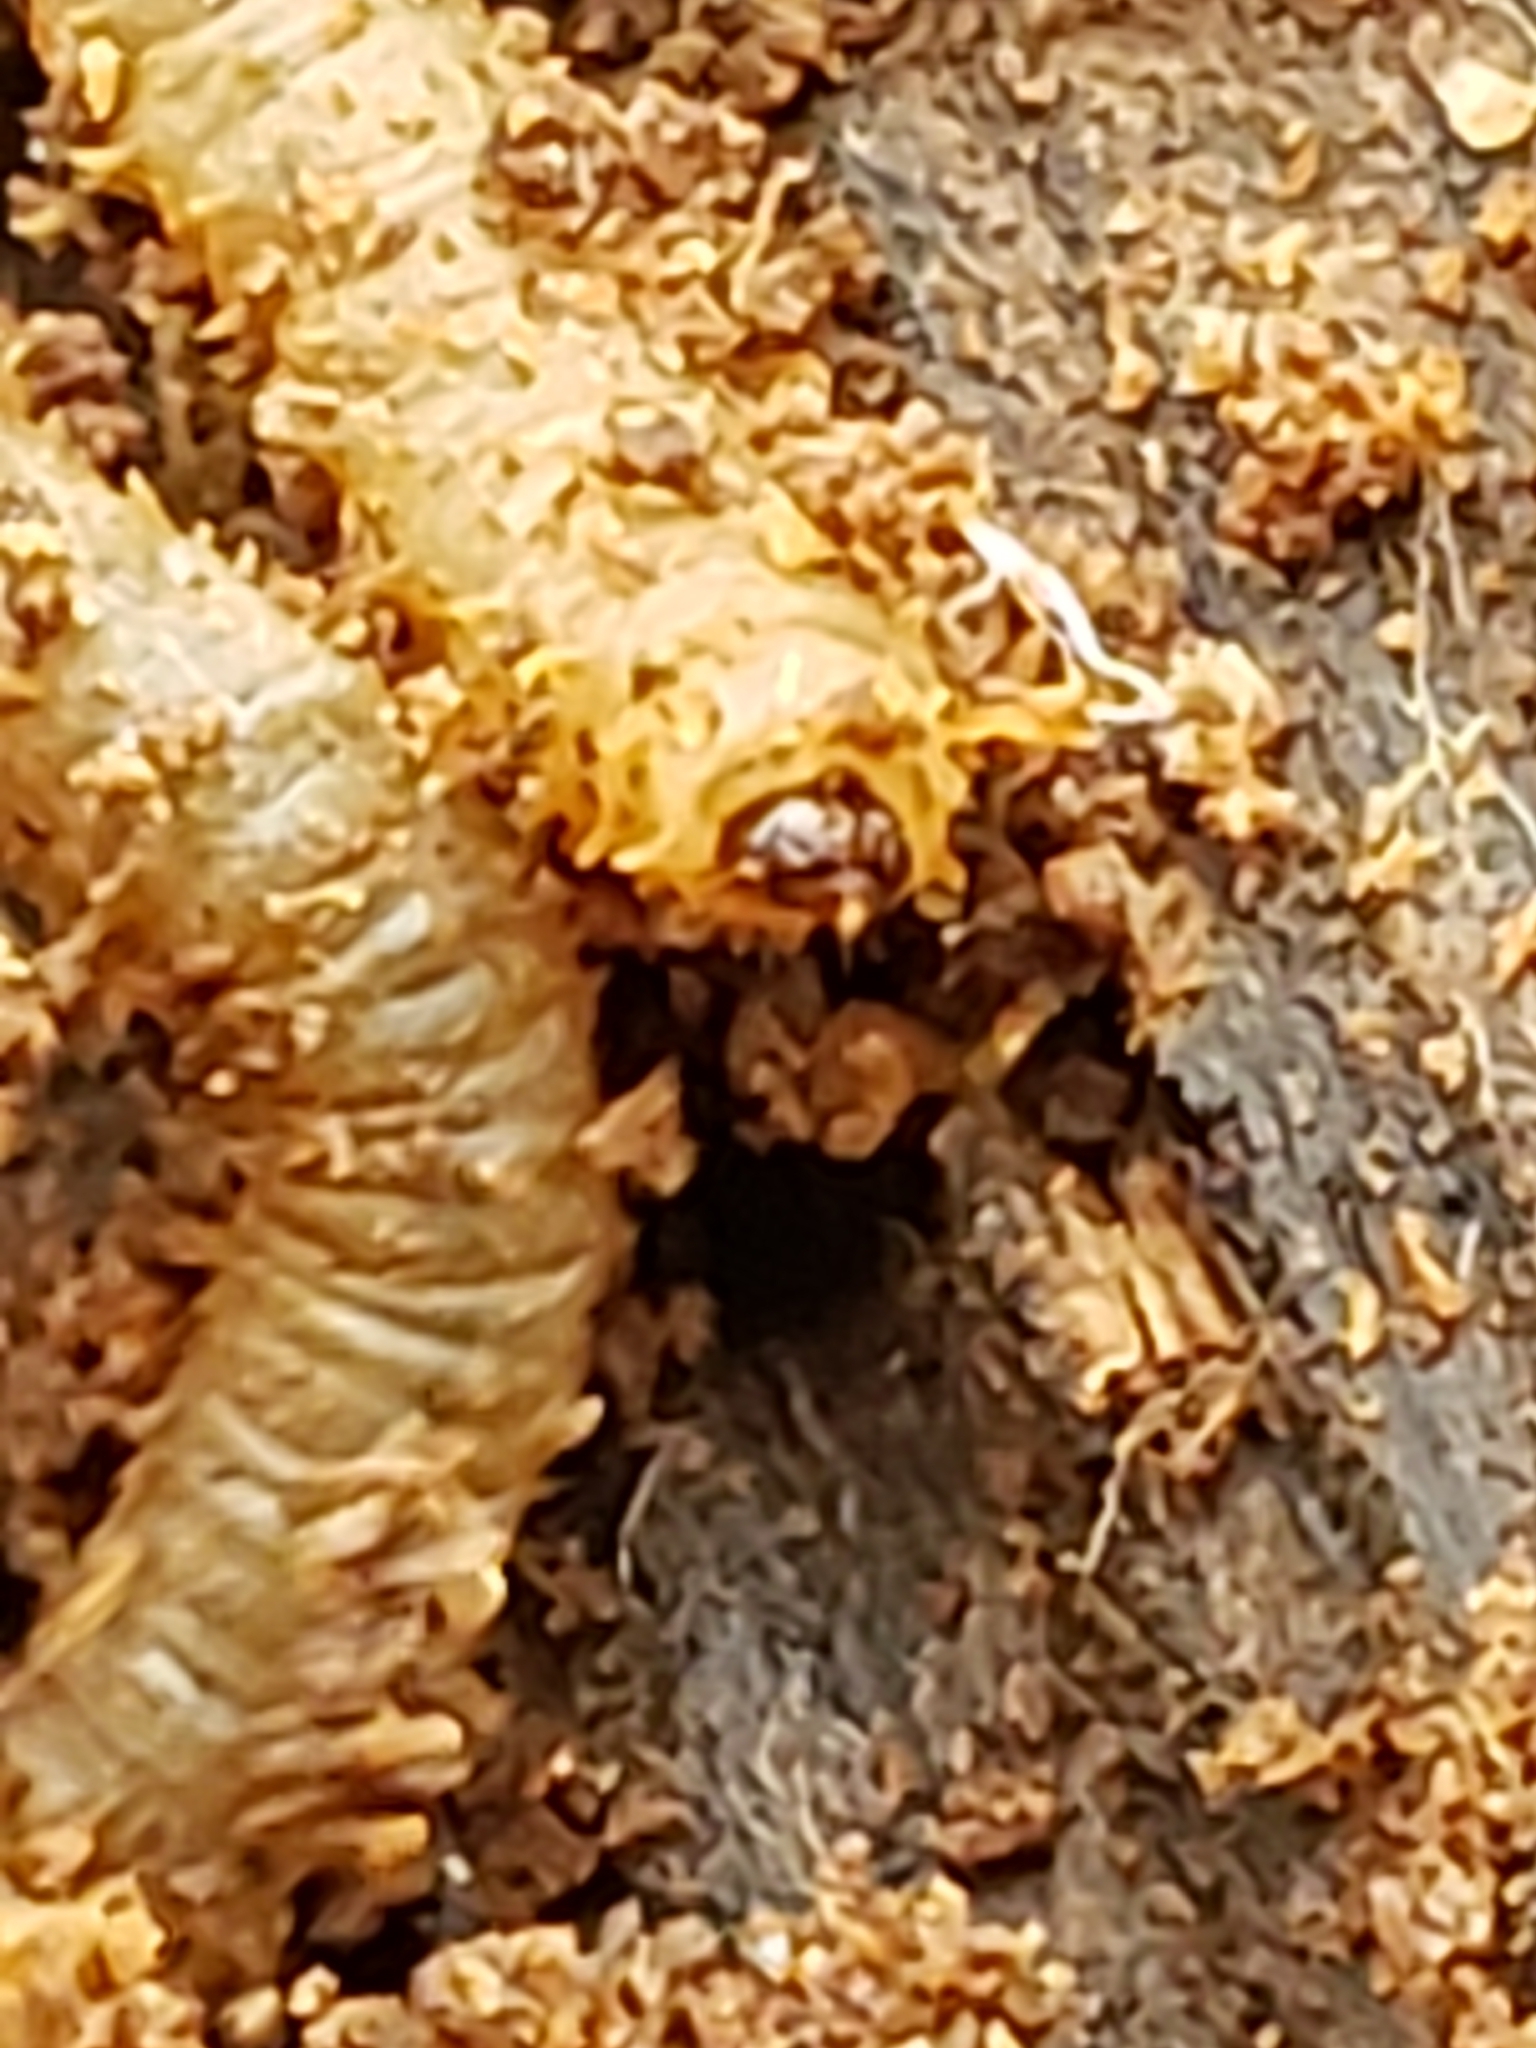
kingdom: Animalia
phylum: Arthropoda
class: Insecta
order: Diptera
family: Bibionidae
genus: Bibio
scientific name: Bibio
